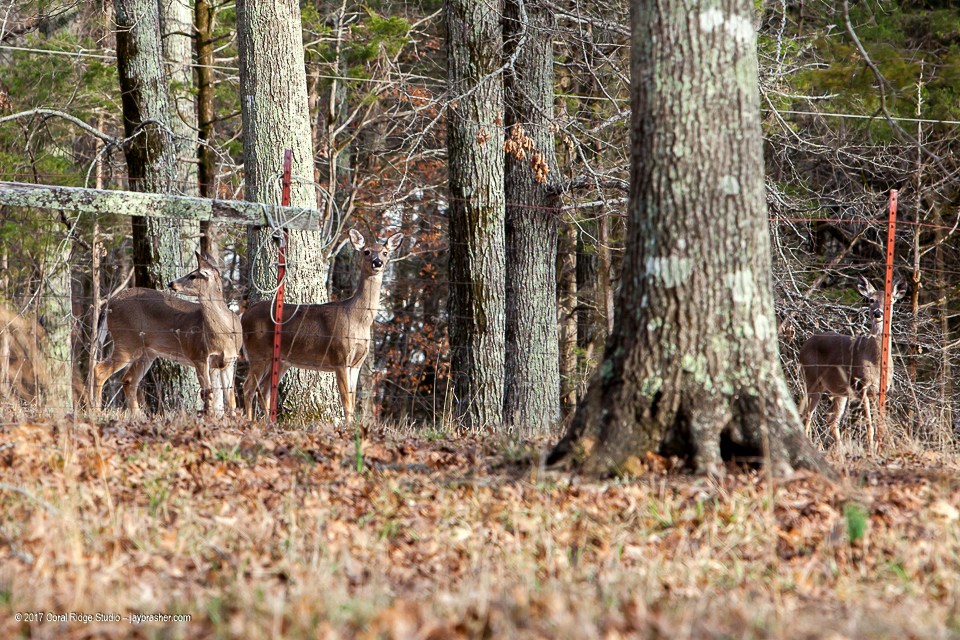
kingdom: Animalia
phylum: Chordata
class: Mammalia
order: Artiodactyla
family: Cervidae
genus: Odocoileus
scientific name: Odocoileus virginianus
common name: White-tailed deer
